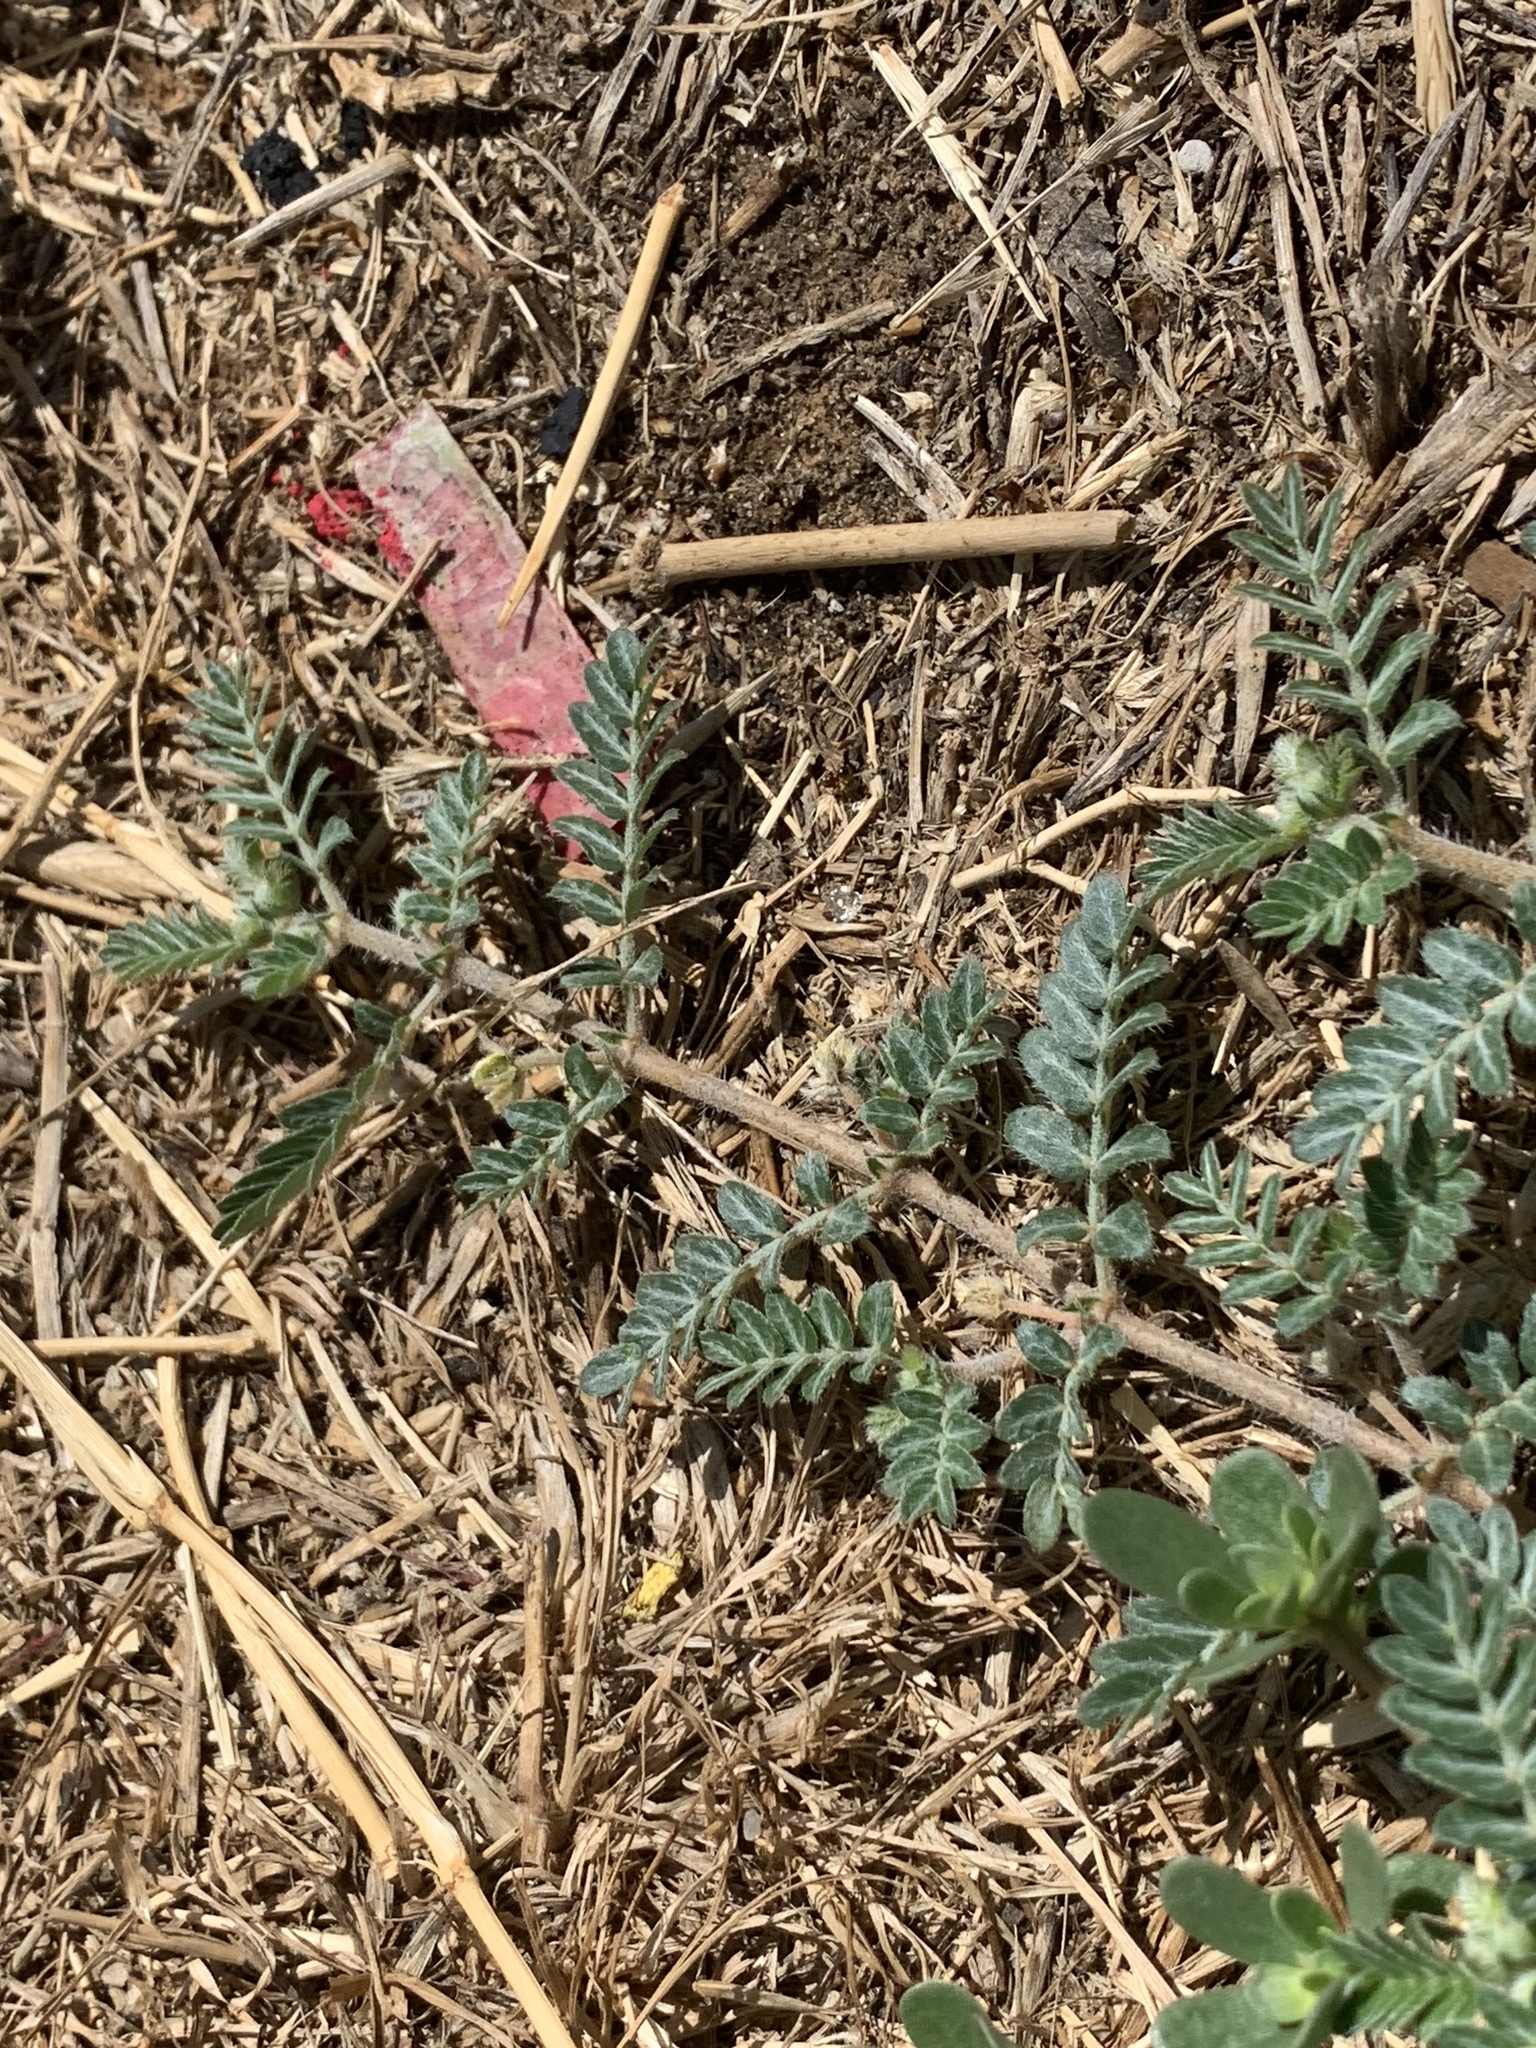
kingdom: Plantae
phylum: Tracheophyta
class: Magnoliopsida
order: Zygophyllales
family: Zygophyllaceae
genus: Tribulus
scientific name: Tribulus terrestris
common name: Puncturevine
